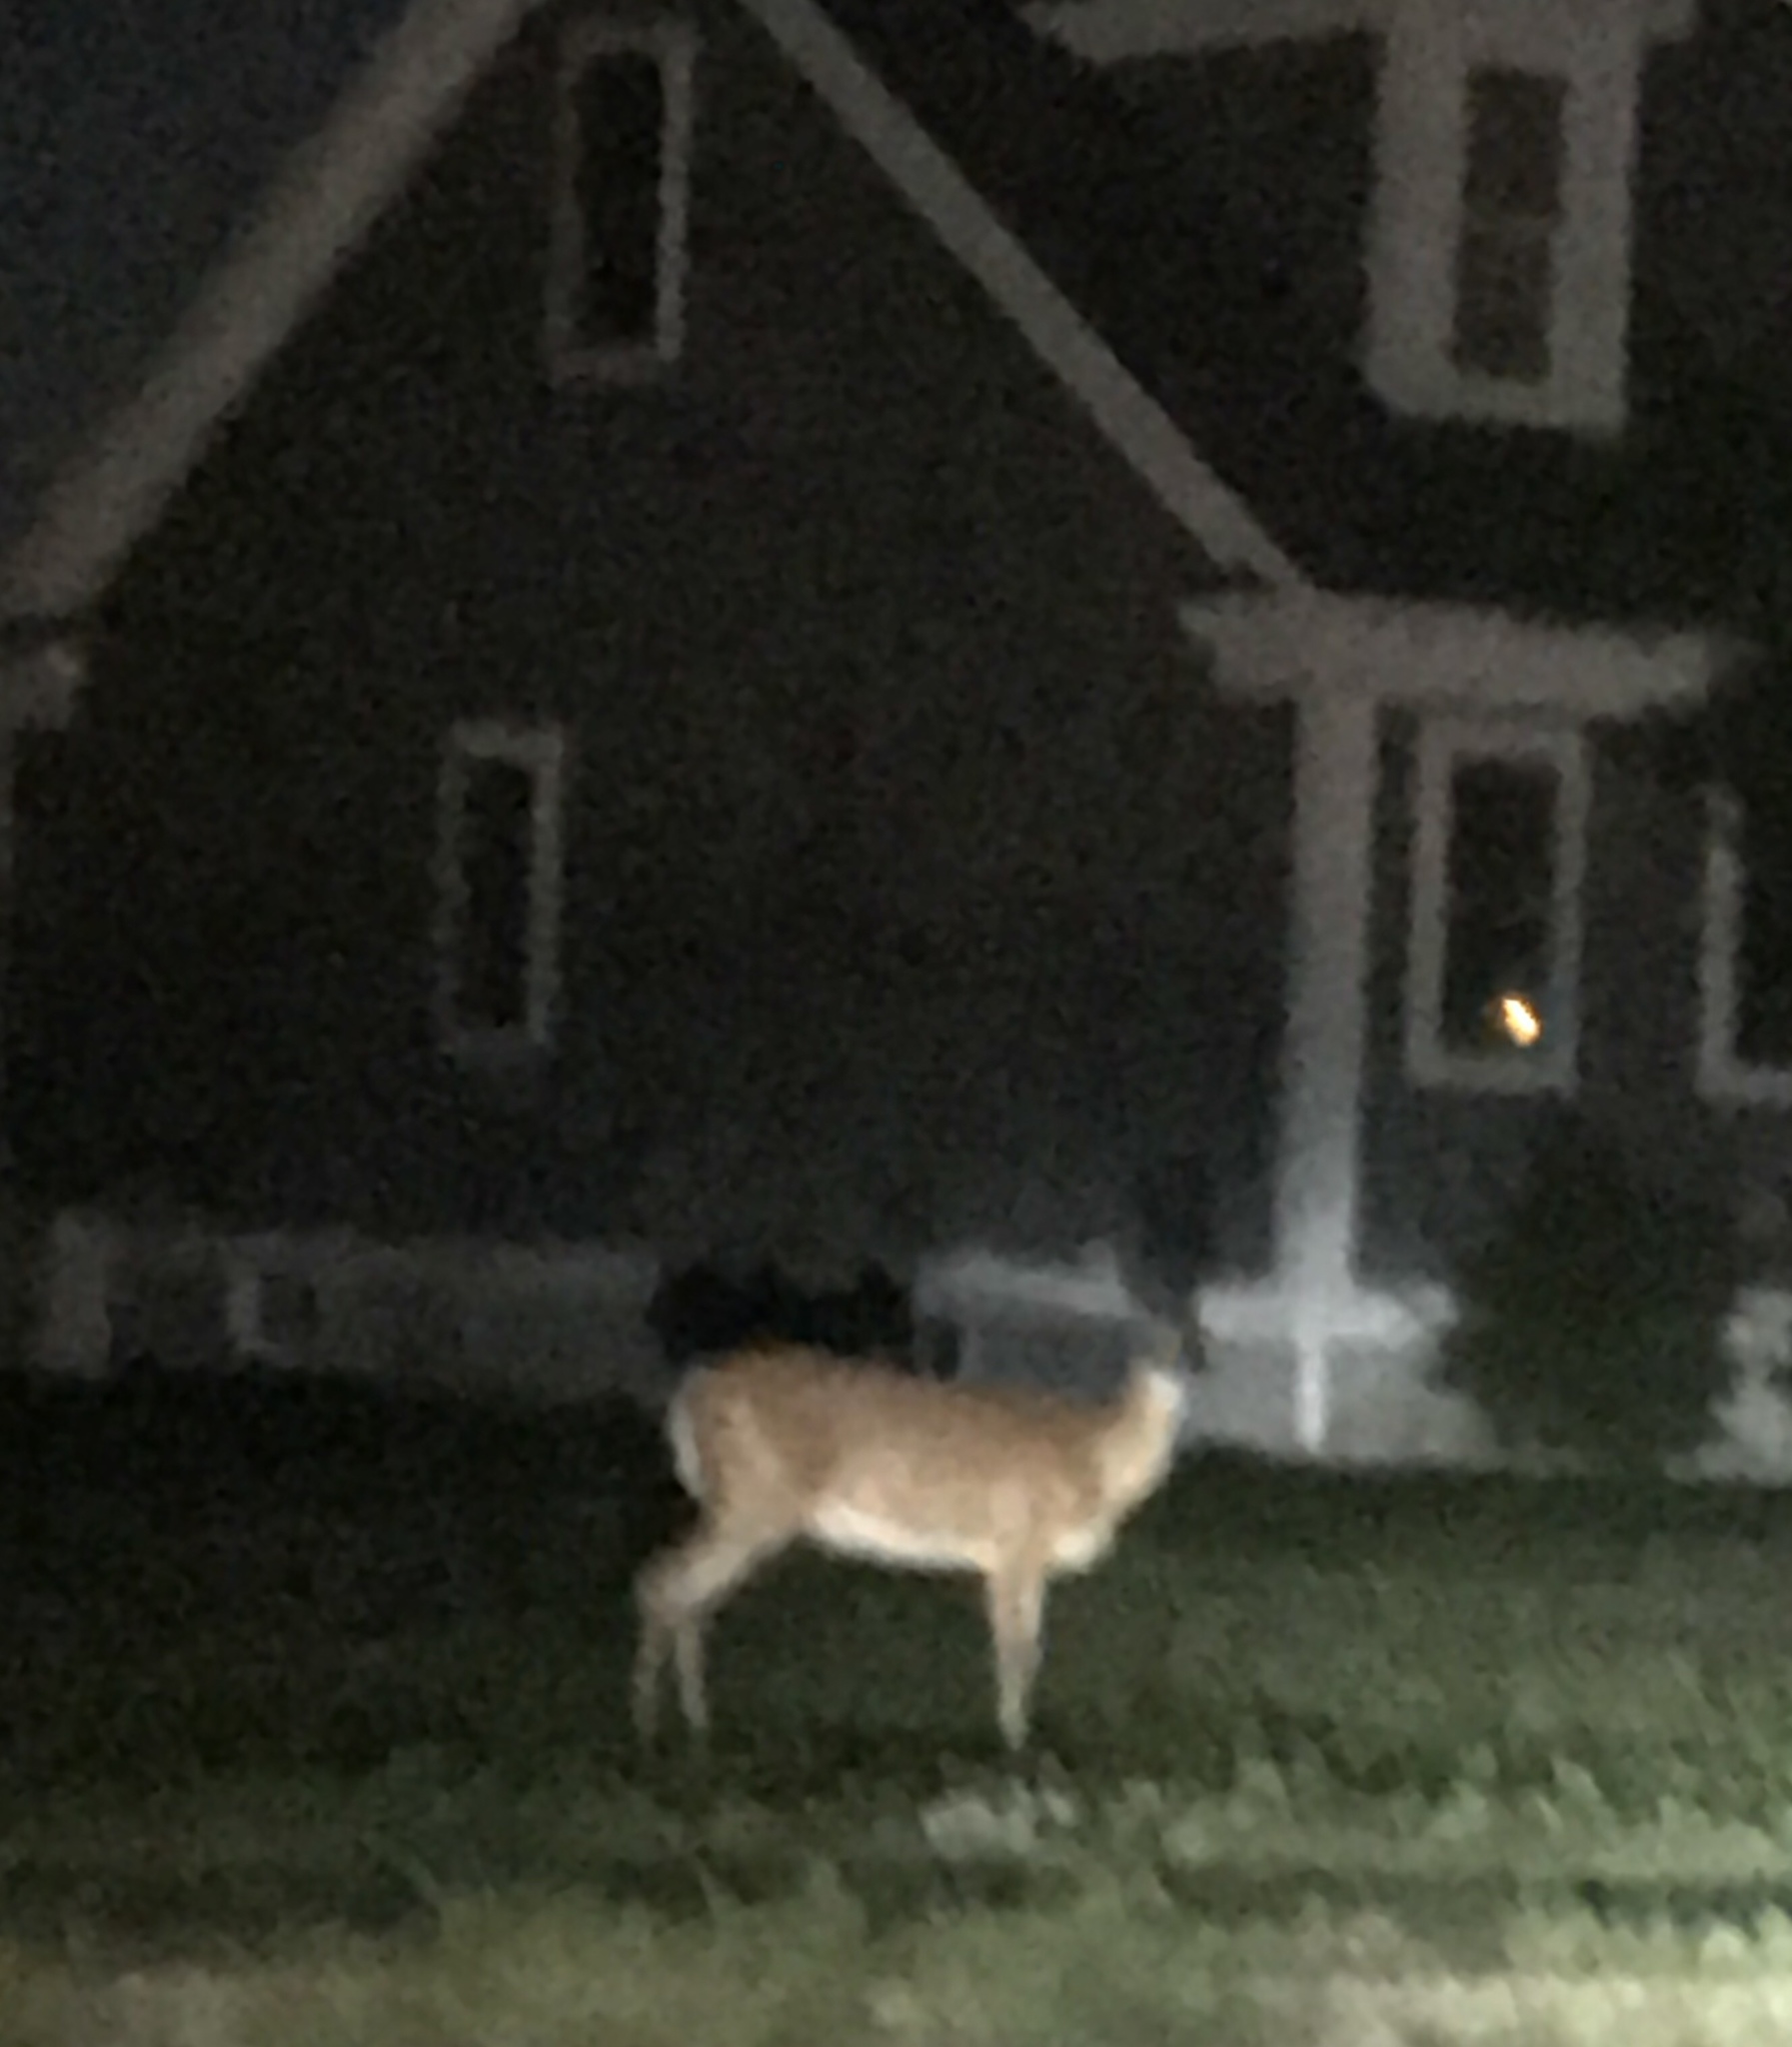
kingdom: Animalia
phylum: Chordata
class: Mammalia
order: Artiodactyla
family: Cervidae
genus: Odocoileus
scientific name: Odocoileus virginianus
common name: White-tailed deer
